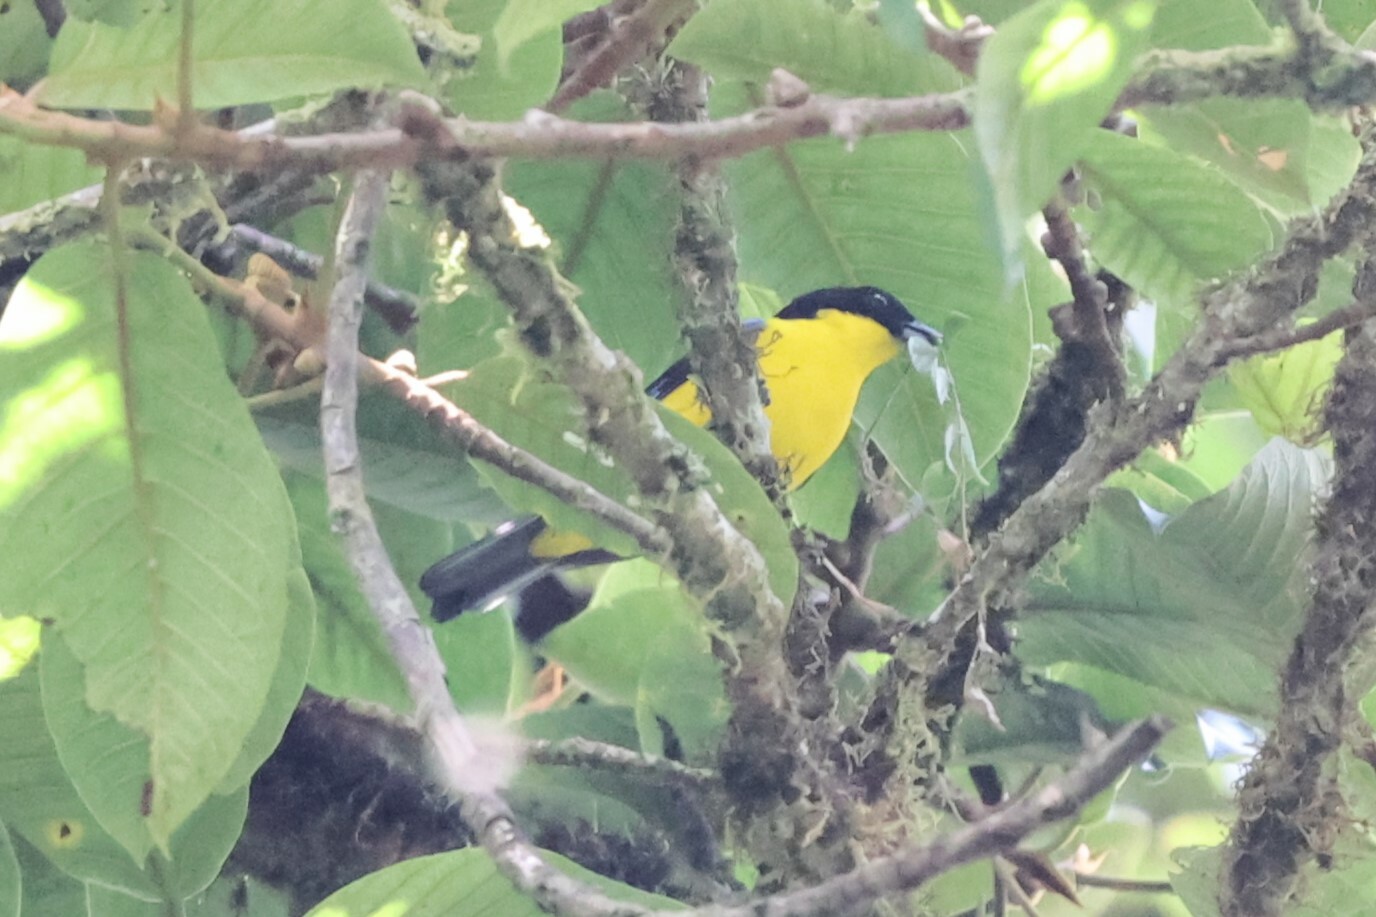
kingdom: Animalia
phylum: Chordata
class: Aves
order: Passeriformes
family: Thraupidae
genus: Anisognathus
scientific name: Anisognathus somptuosus
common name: Blue-winged mountain-tanager
